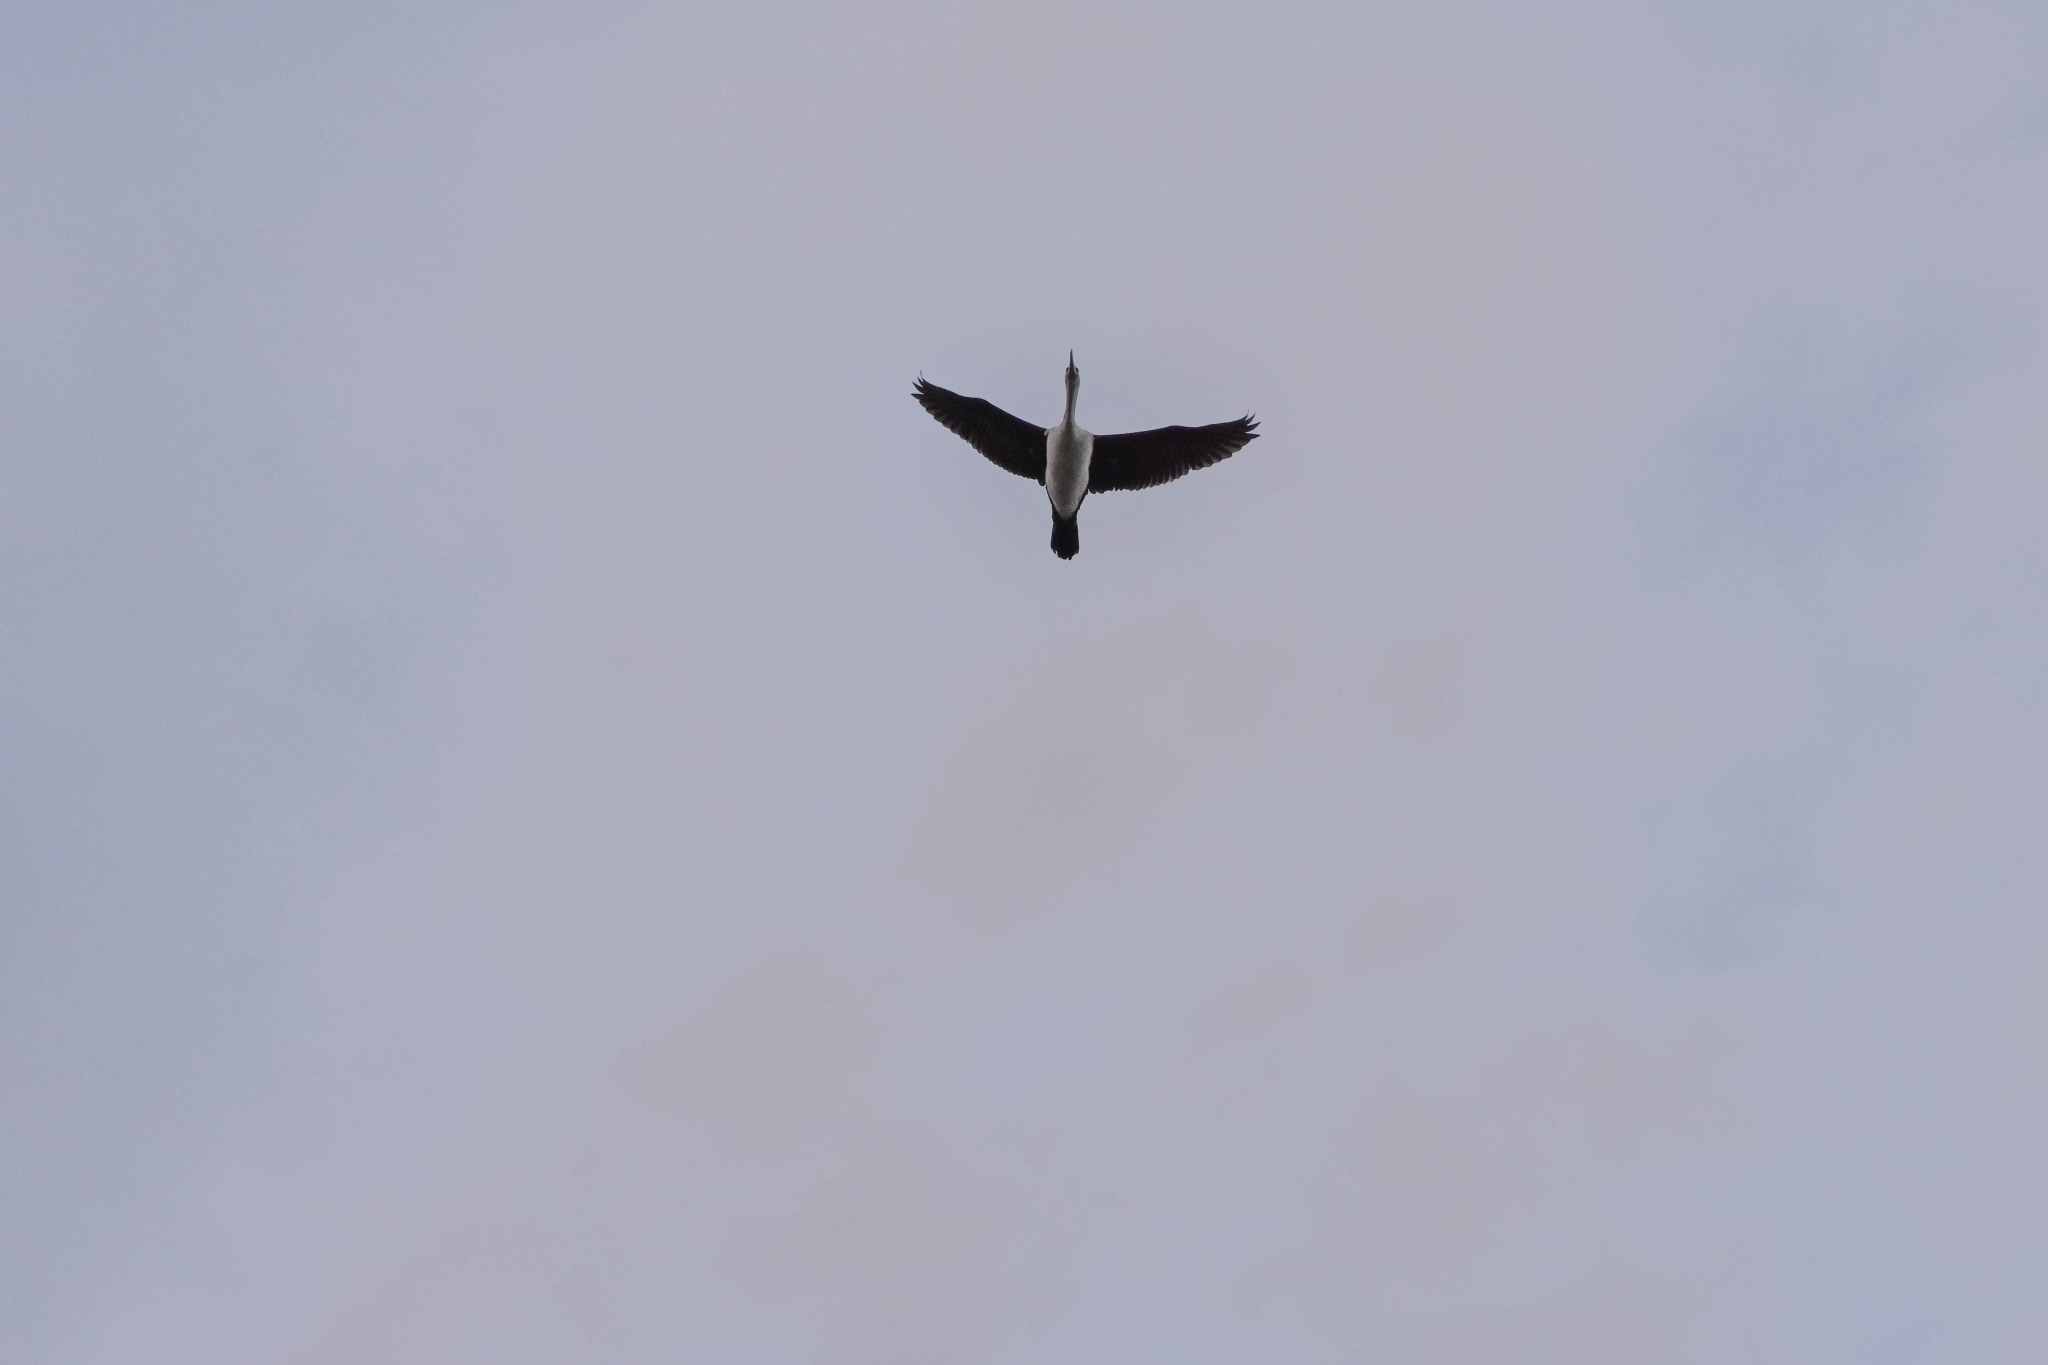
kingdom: Animalia
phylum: Chordata
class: Aves
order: Suliformes
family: Phalacrocoracidae
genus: Phalacrocorax
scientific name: Phalacrocorax varius
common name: Pied cormorant
